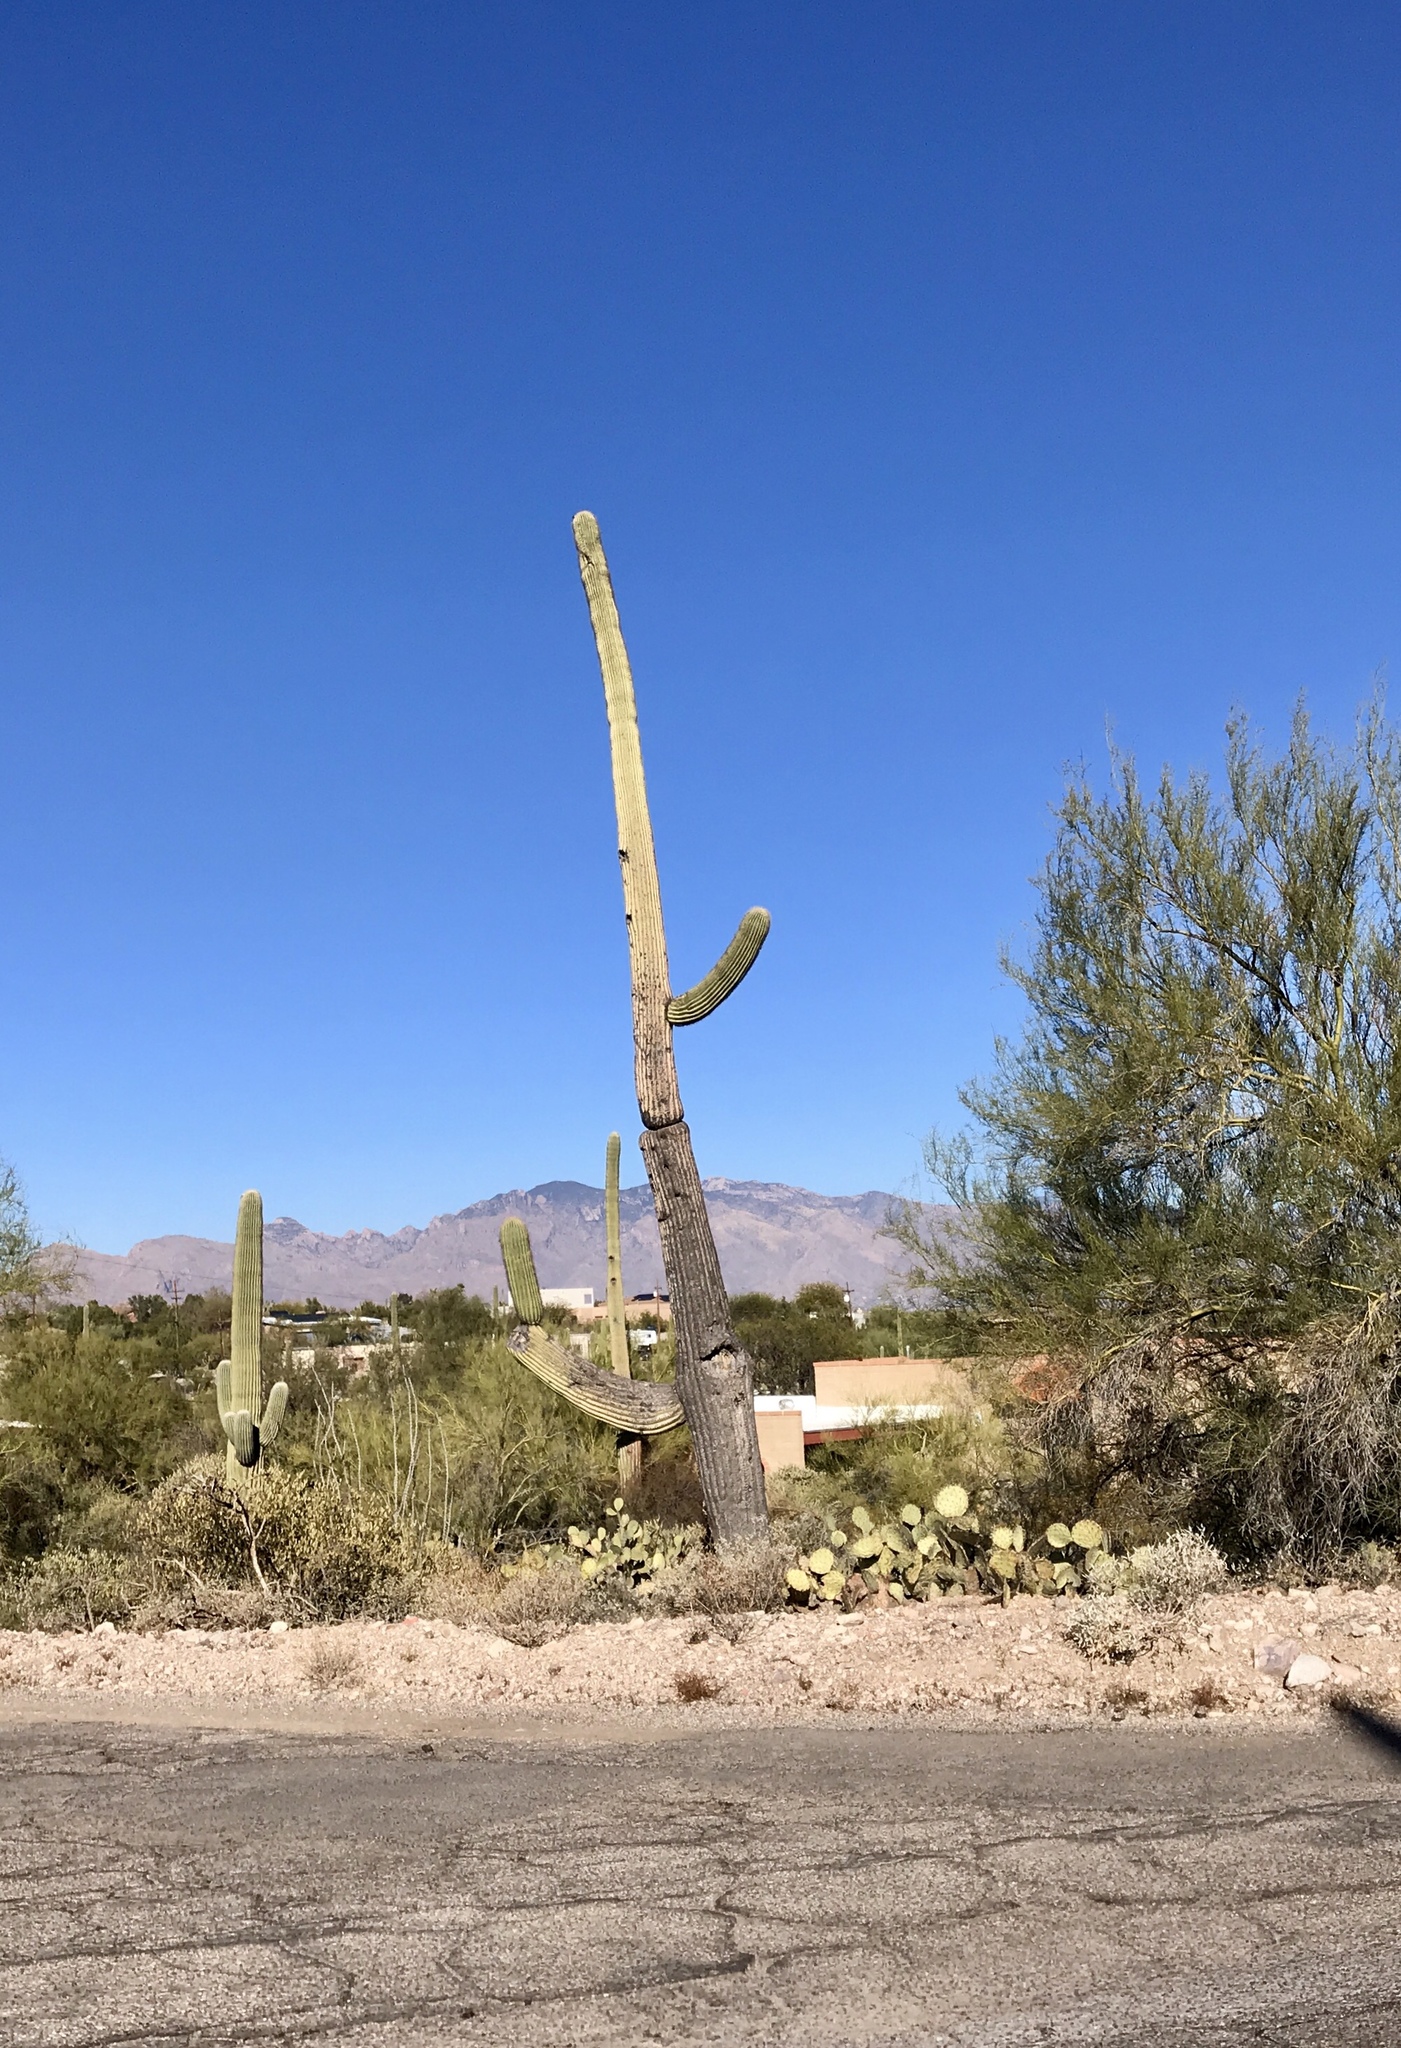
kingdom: Plantae
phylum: Tracheophyta
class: Magnoliopsida
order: Caryophyllales
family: Cactaceae
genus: Carnegiea
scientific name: Carnegiea gigantea
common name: Saguaro
